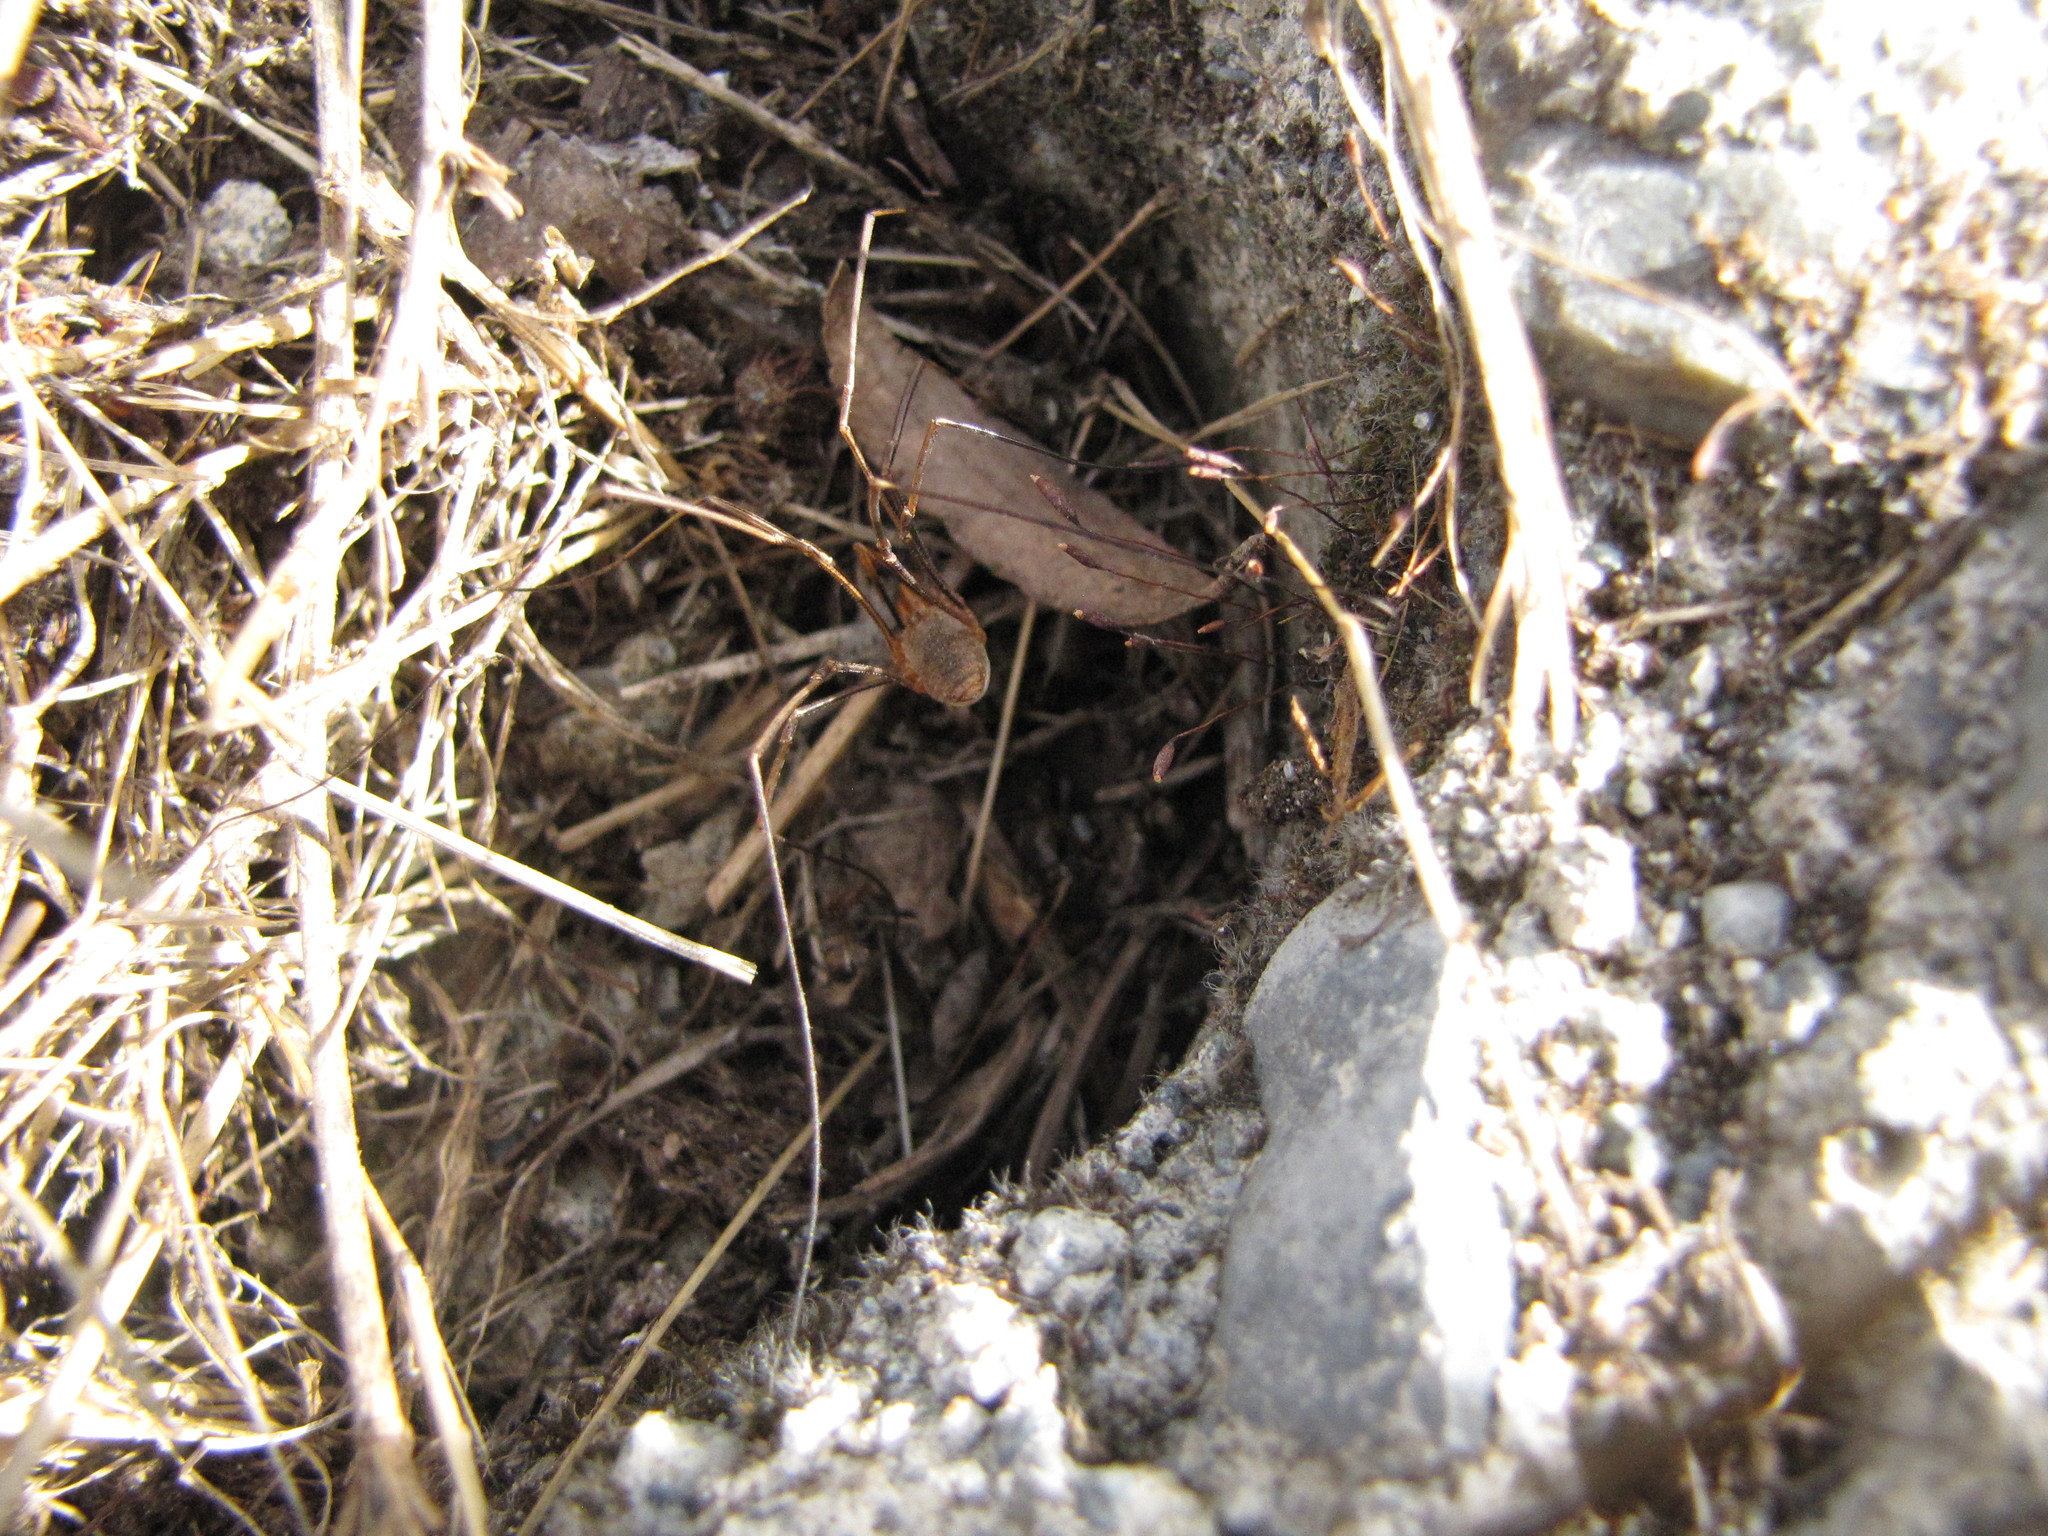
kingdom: Animalia
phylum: Arthropoda
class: Arachnida
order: Opiliones
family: Phalangiidae
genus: Phalangium
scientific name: Phalangium opilio
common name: Daddy longleg
